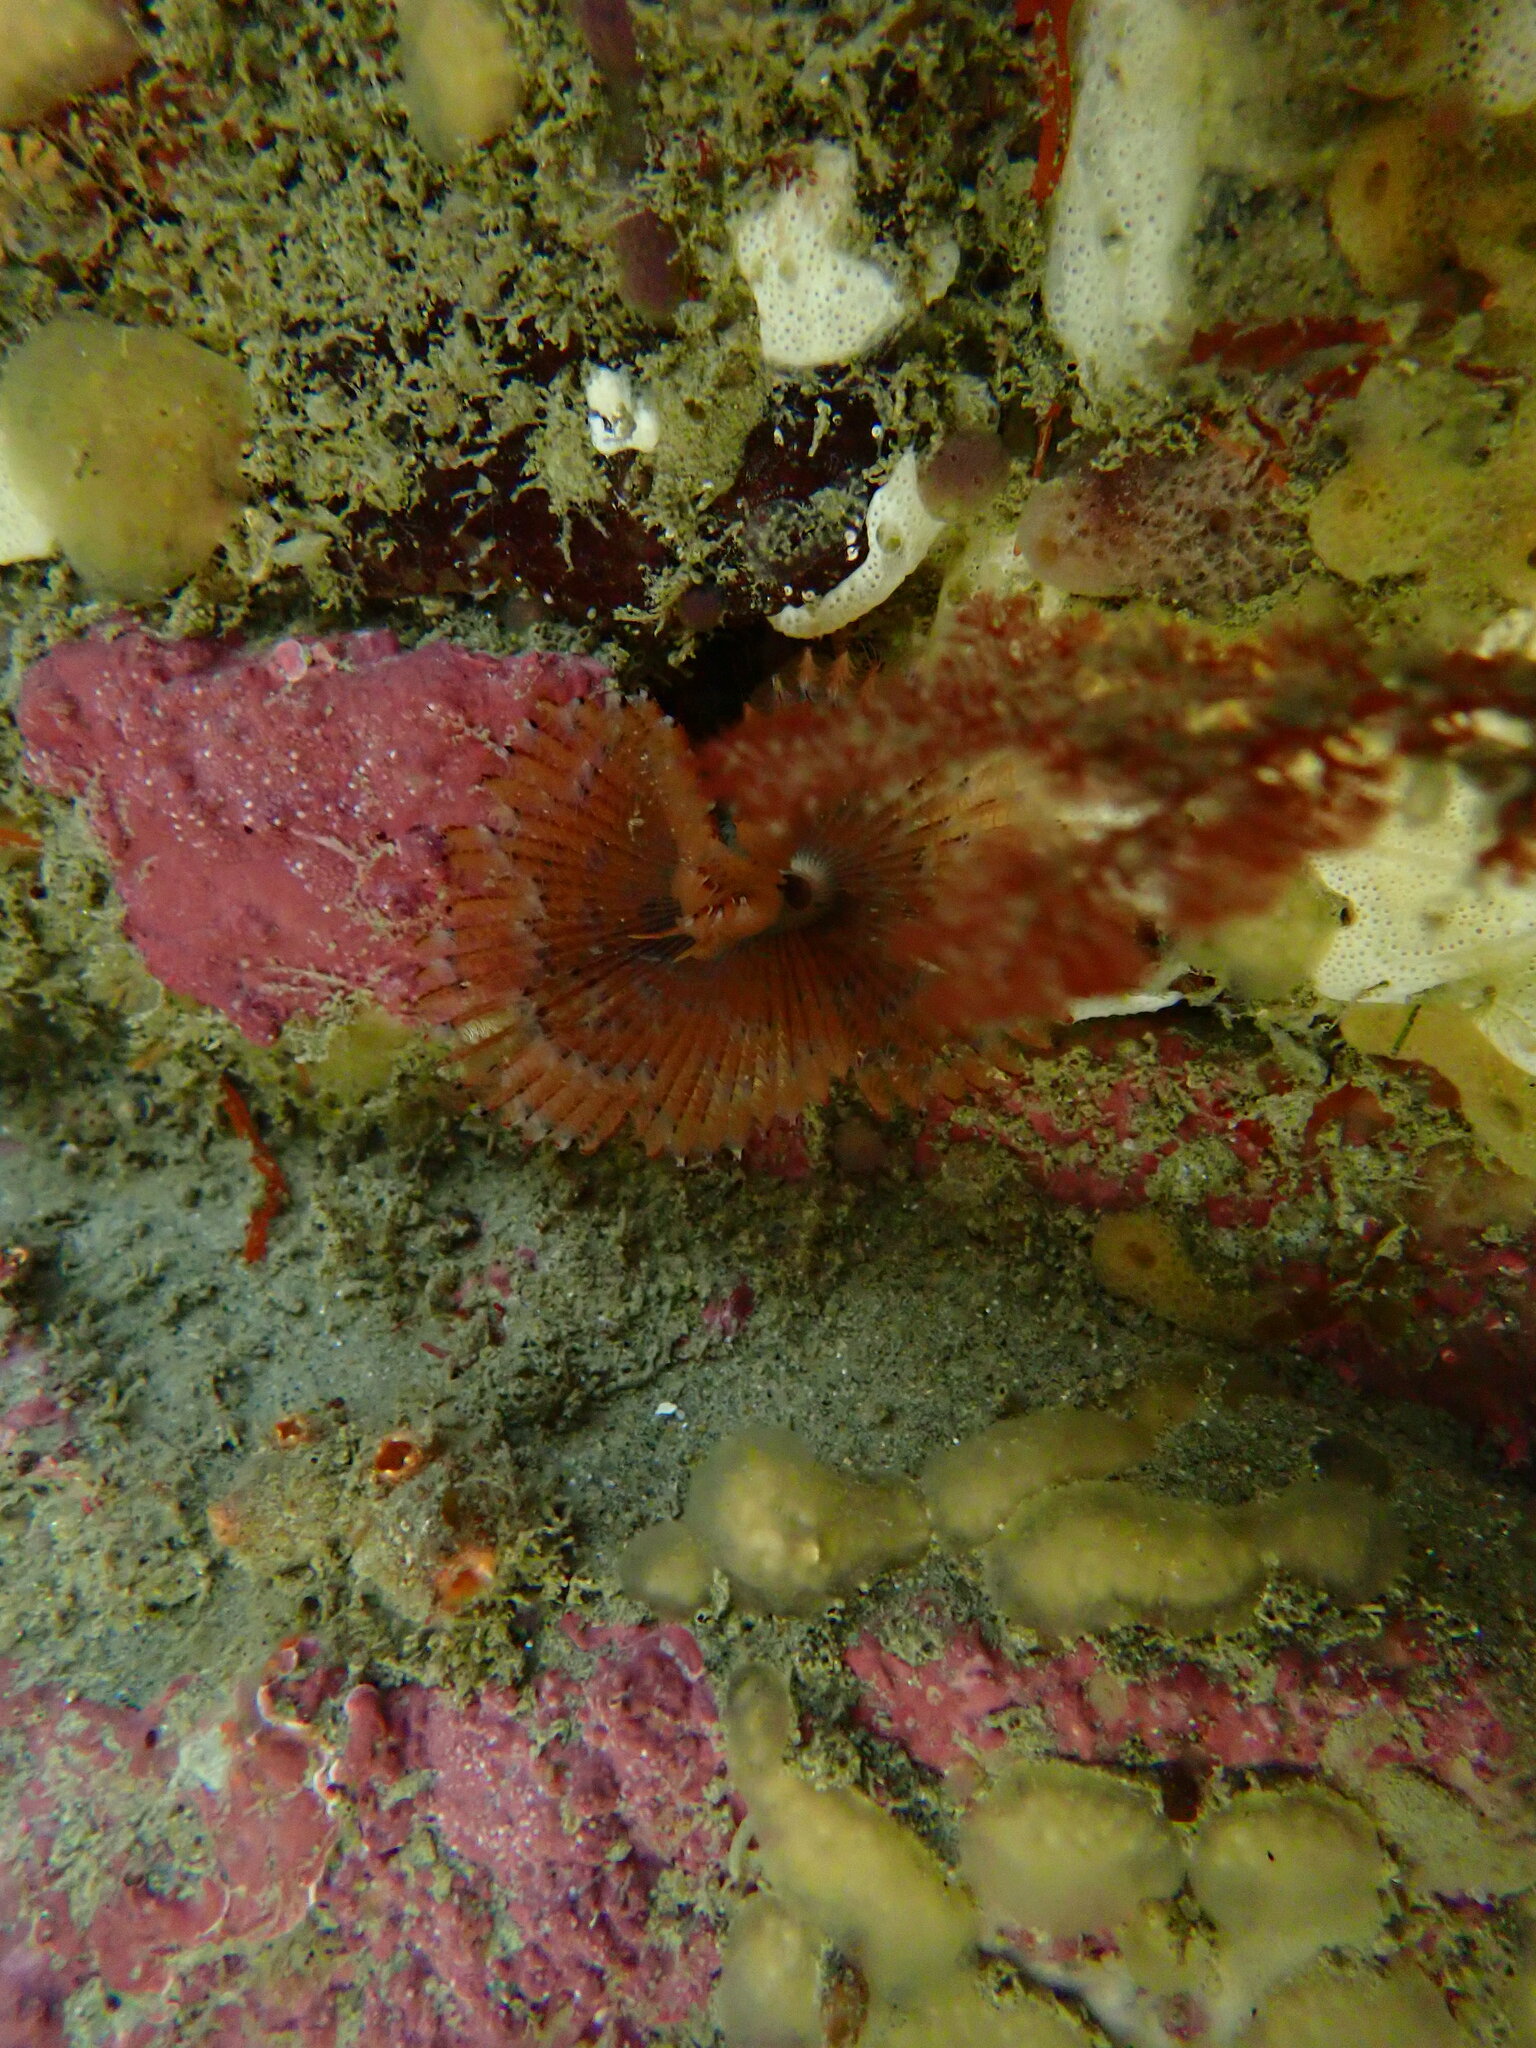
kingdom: Animalia
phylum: Annelida
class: Polychaeta
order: Sabellida
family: Sabellidae
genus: Pseudobranchiomma
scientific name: Pseudobranchiomma grandis
